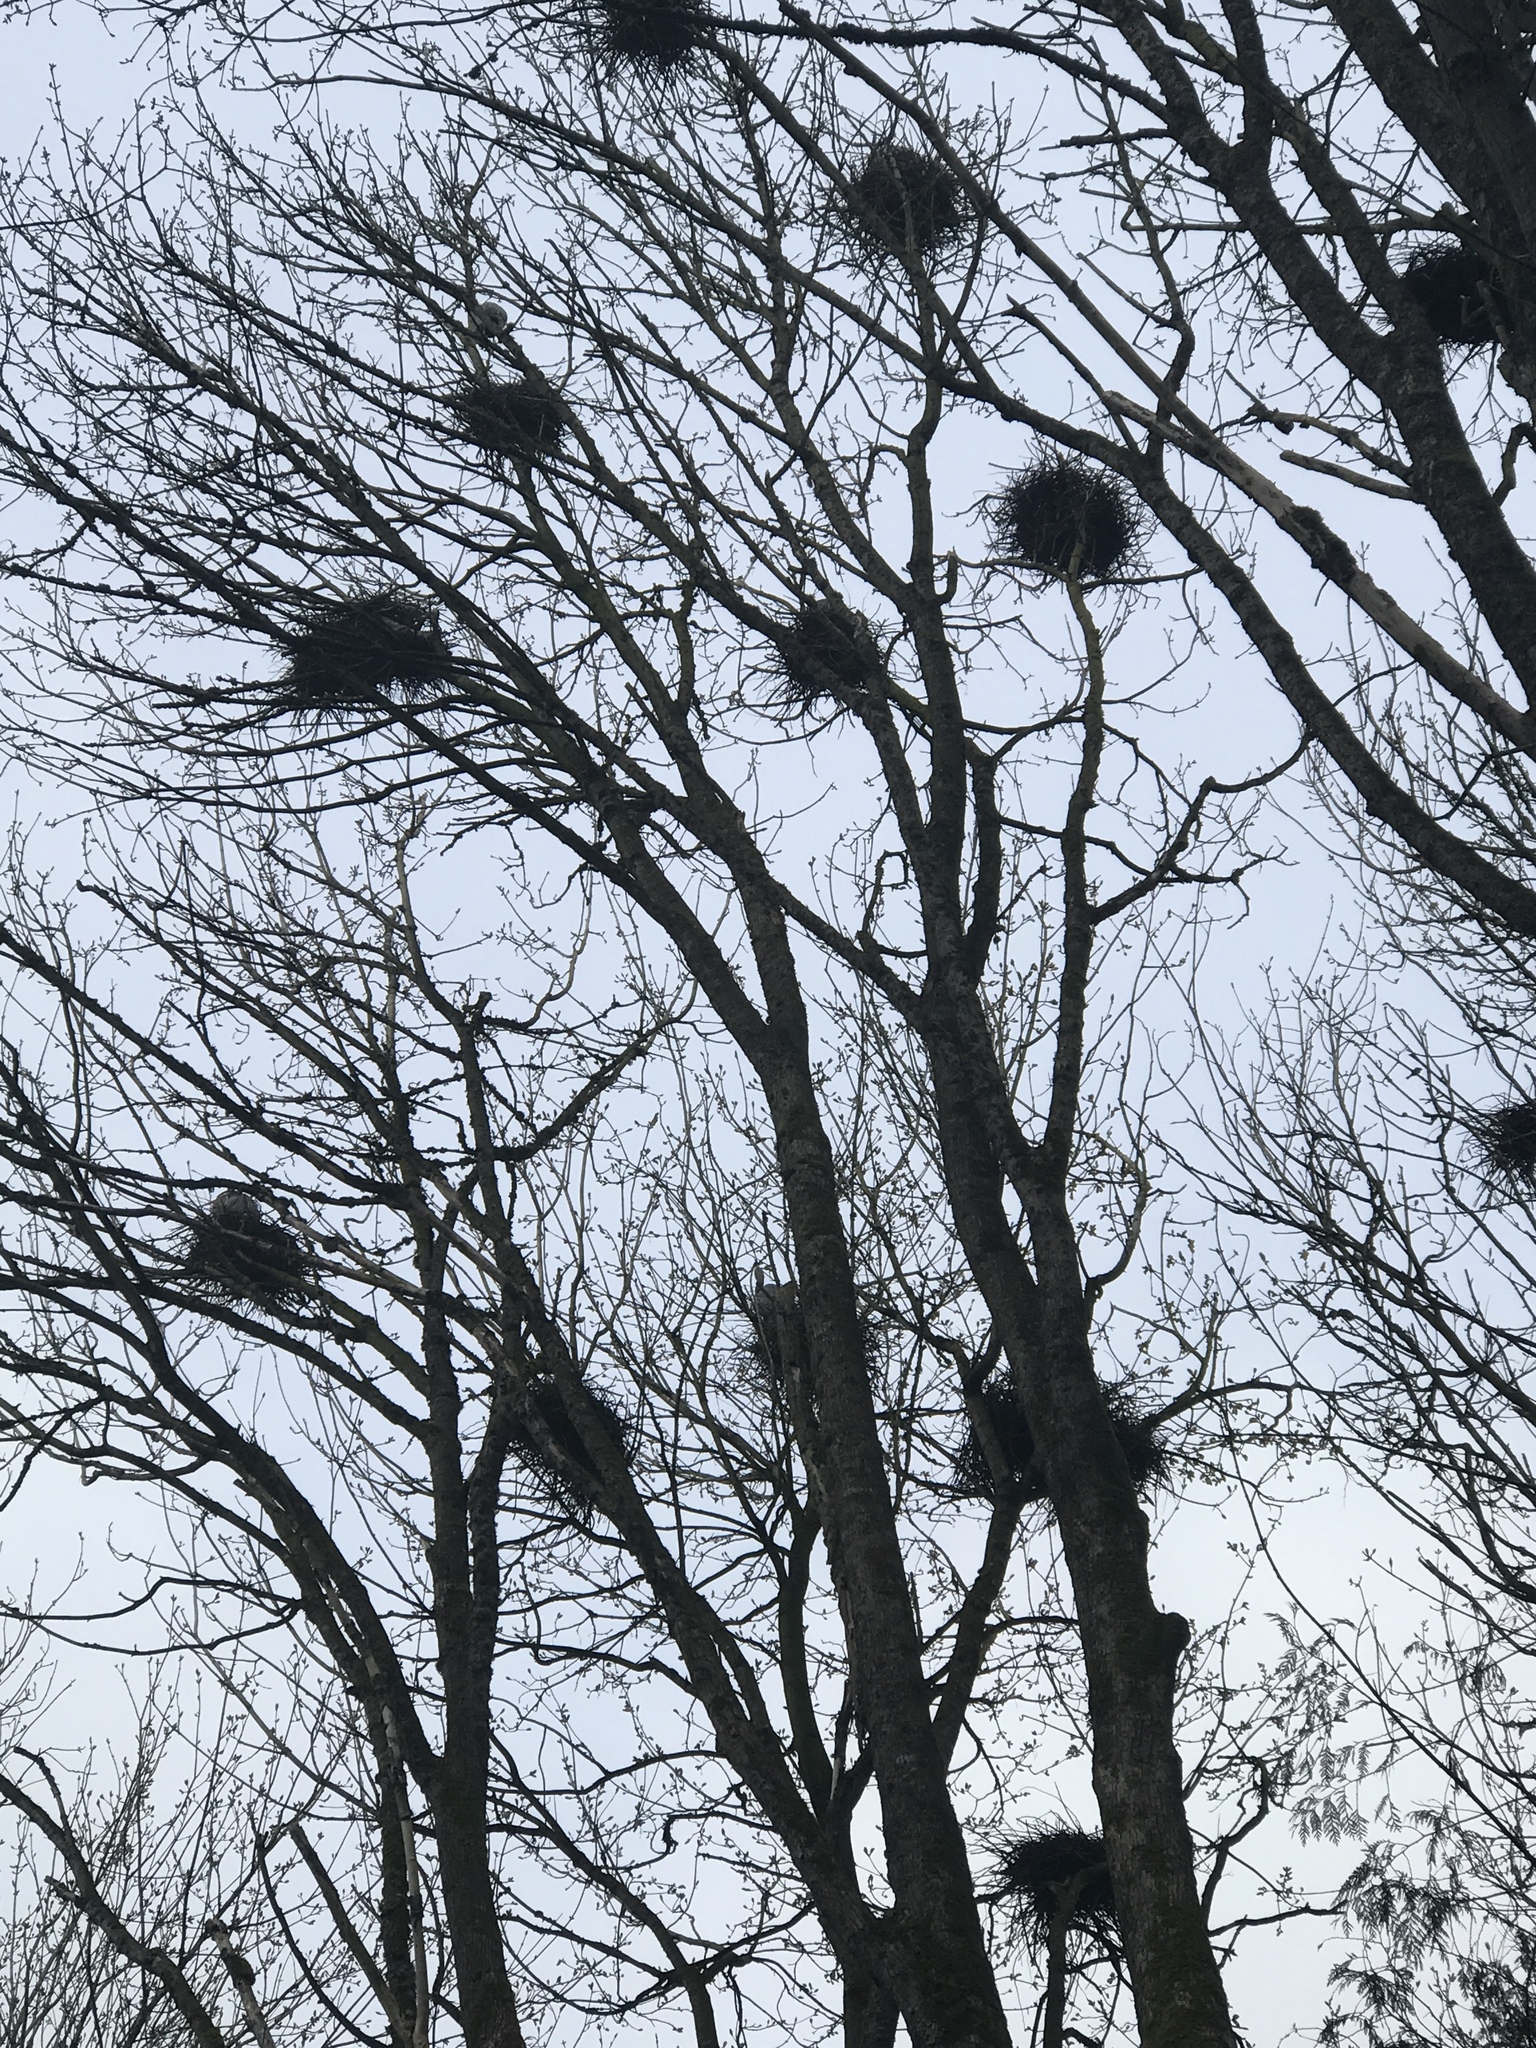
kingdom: Animalia
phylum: Chordata
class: Aves
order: Pelecaniformes
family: Ardeidae
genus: Ardea
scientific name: Ardea herodias
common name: Great blue heron
